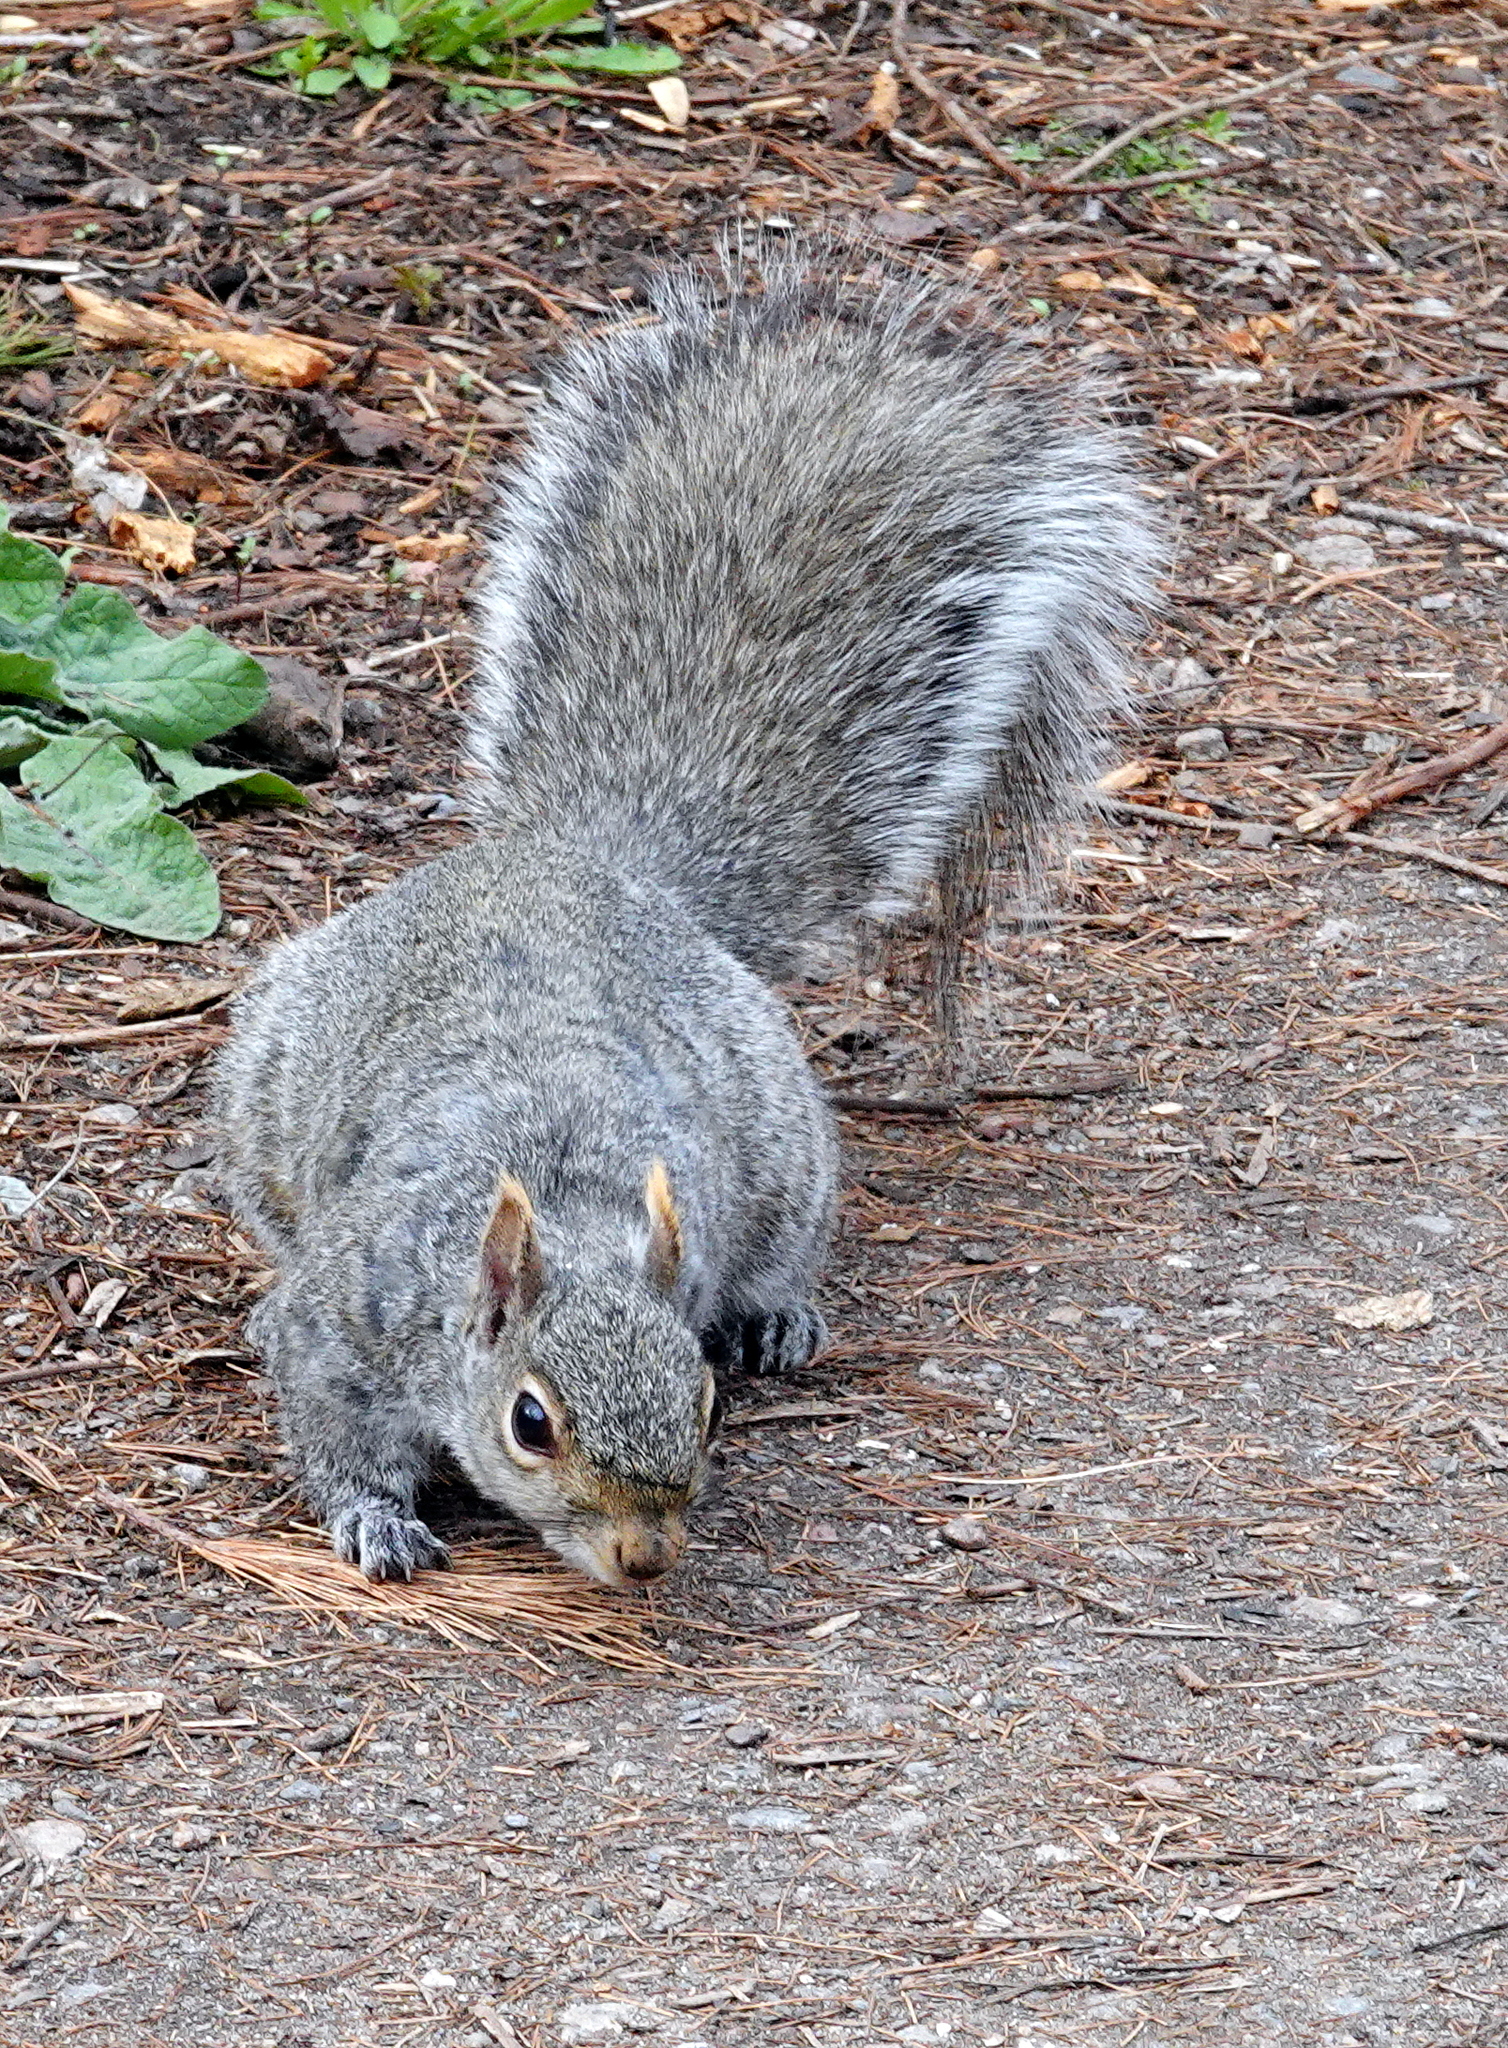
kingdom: Animalia
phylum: Chordata
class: Mammalia
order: Rodentia
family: Sciuridae
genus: Sciurus
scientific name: Sciurus carolinensis
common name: Eastern gray squirrel
